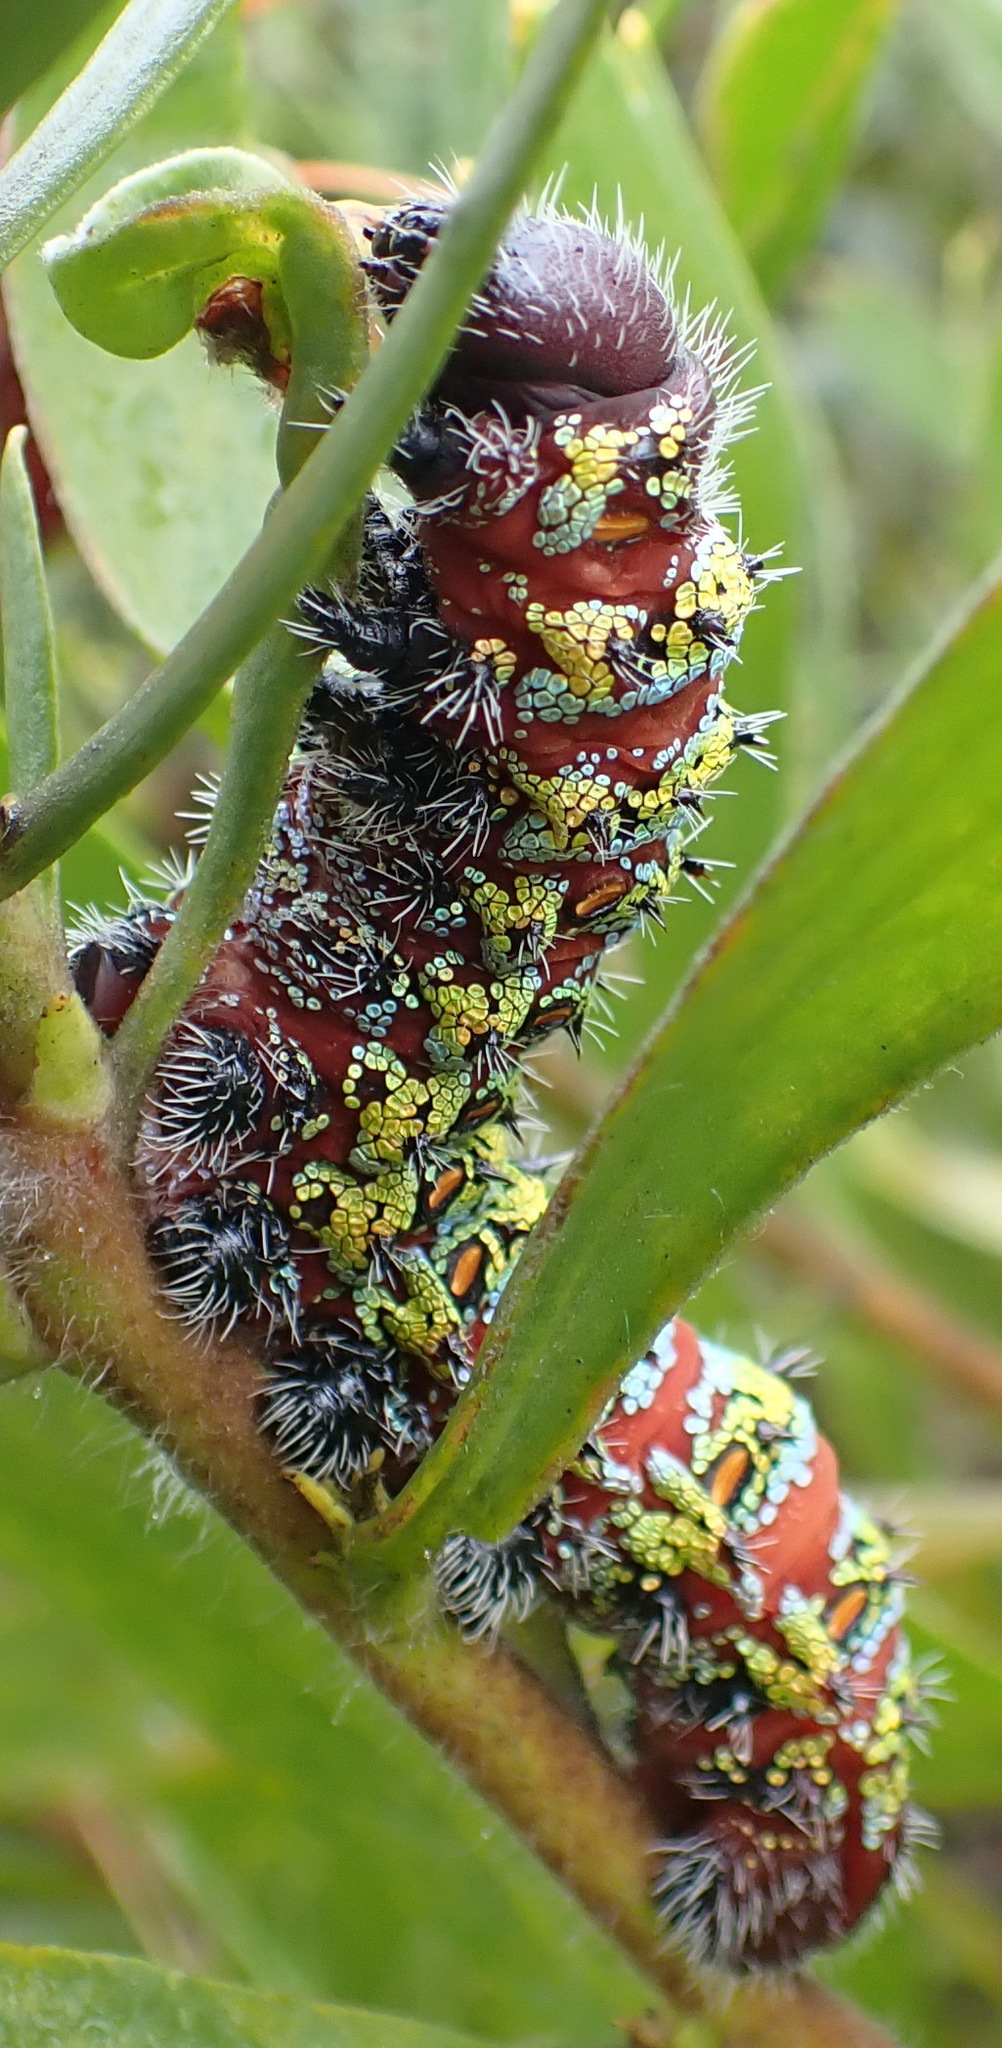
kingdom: Animalia
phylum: Arthropoda
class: Insecta
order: Lepidoptera
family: Saturniidae
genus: Nudaurelia
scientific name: Nudaurelia cytherea
